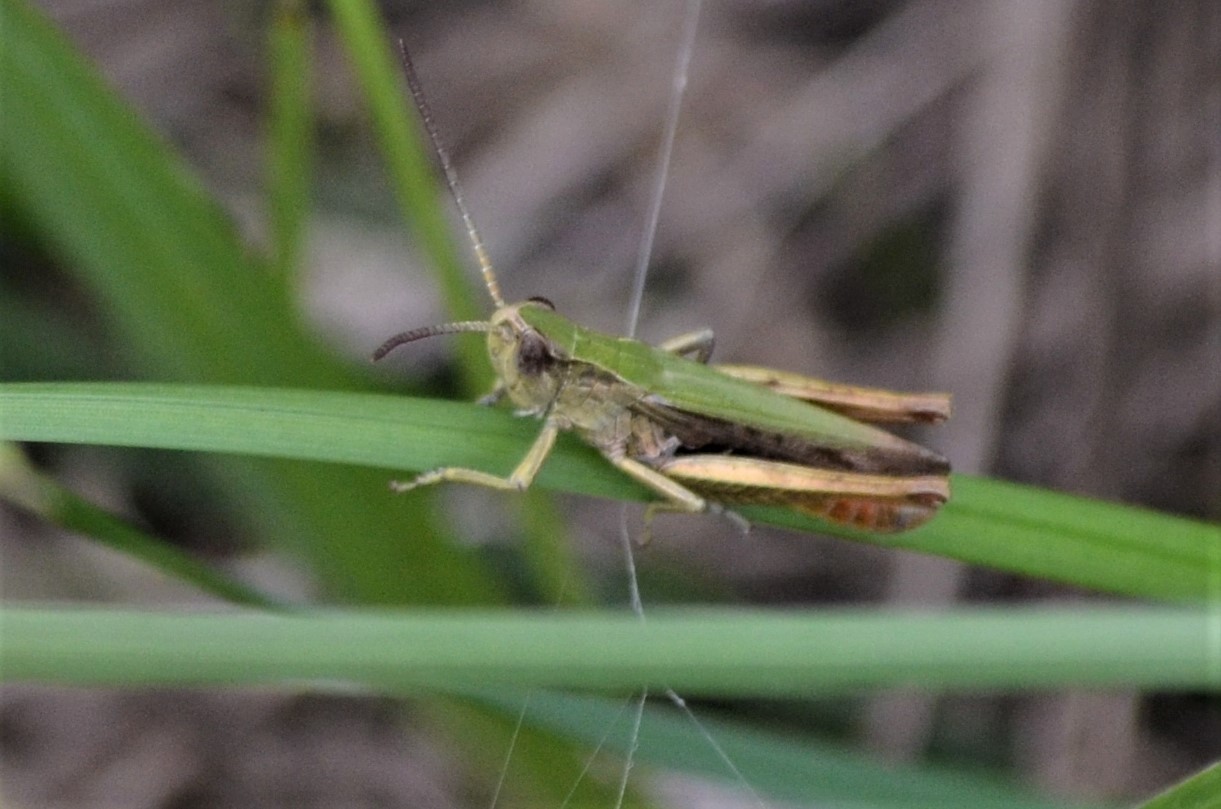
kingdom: Animalia
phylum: Arthropoda
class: Insecta
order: Orthoptera
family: Acrididae
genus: Chorthippus
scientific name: Chorthippus dorsatus
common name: Steppe grasshopper
